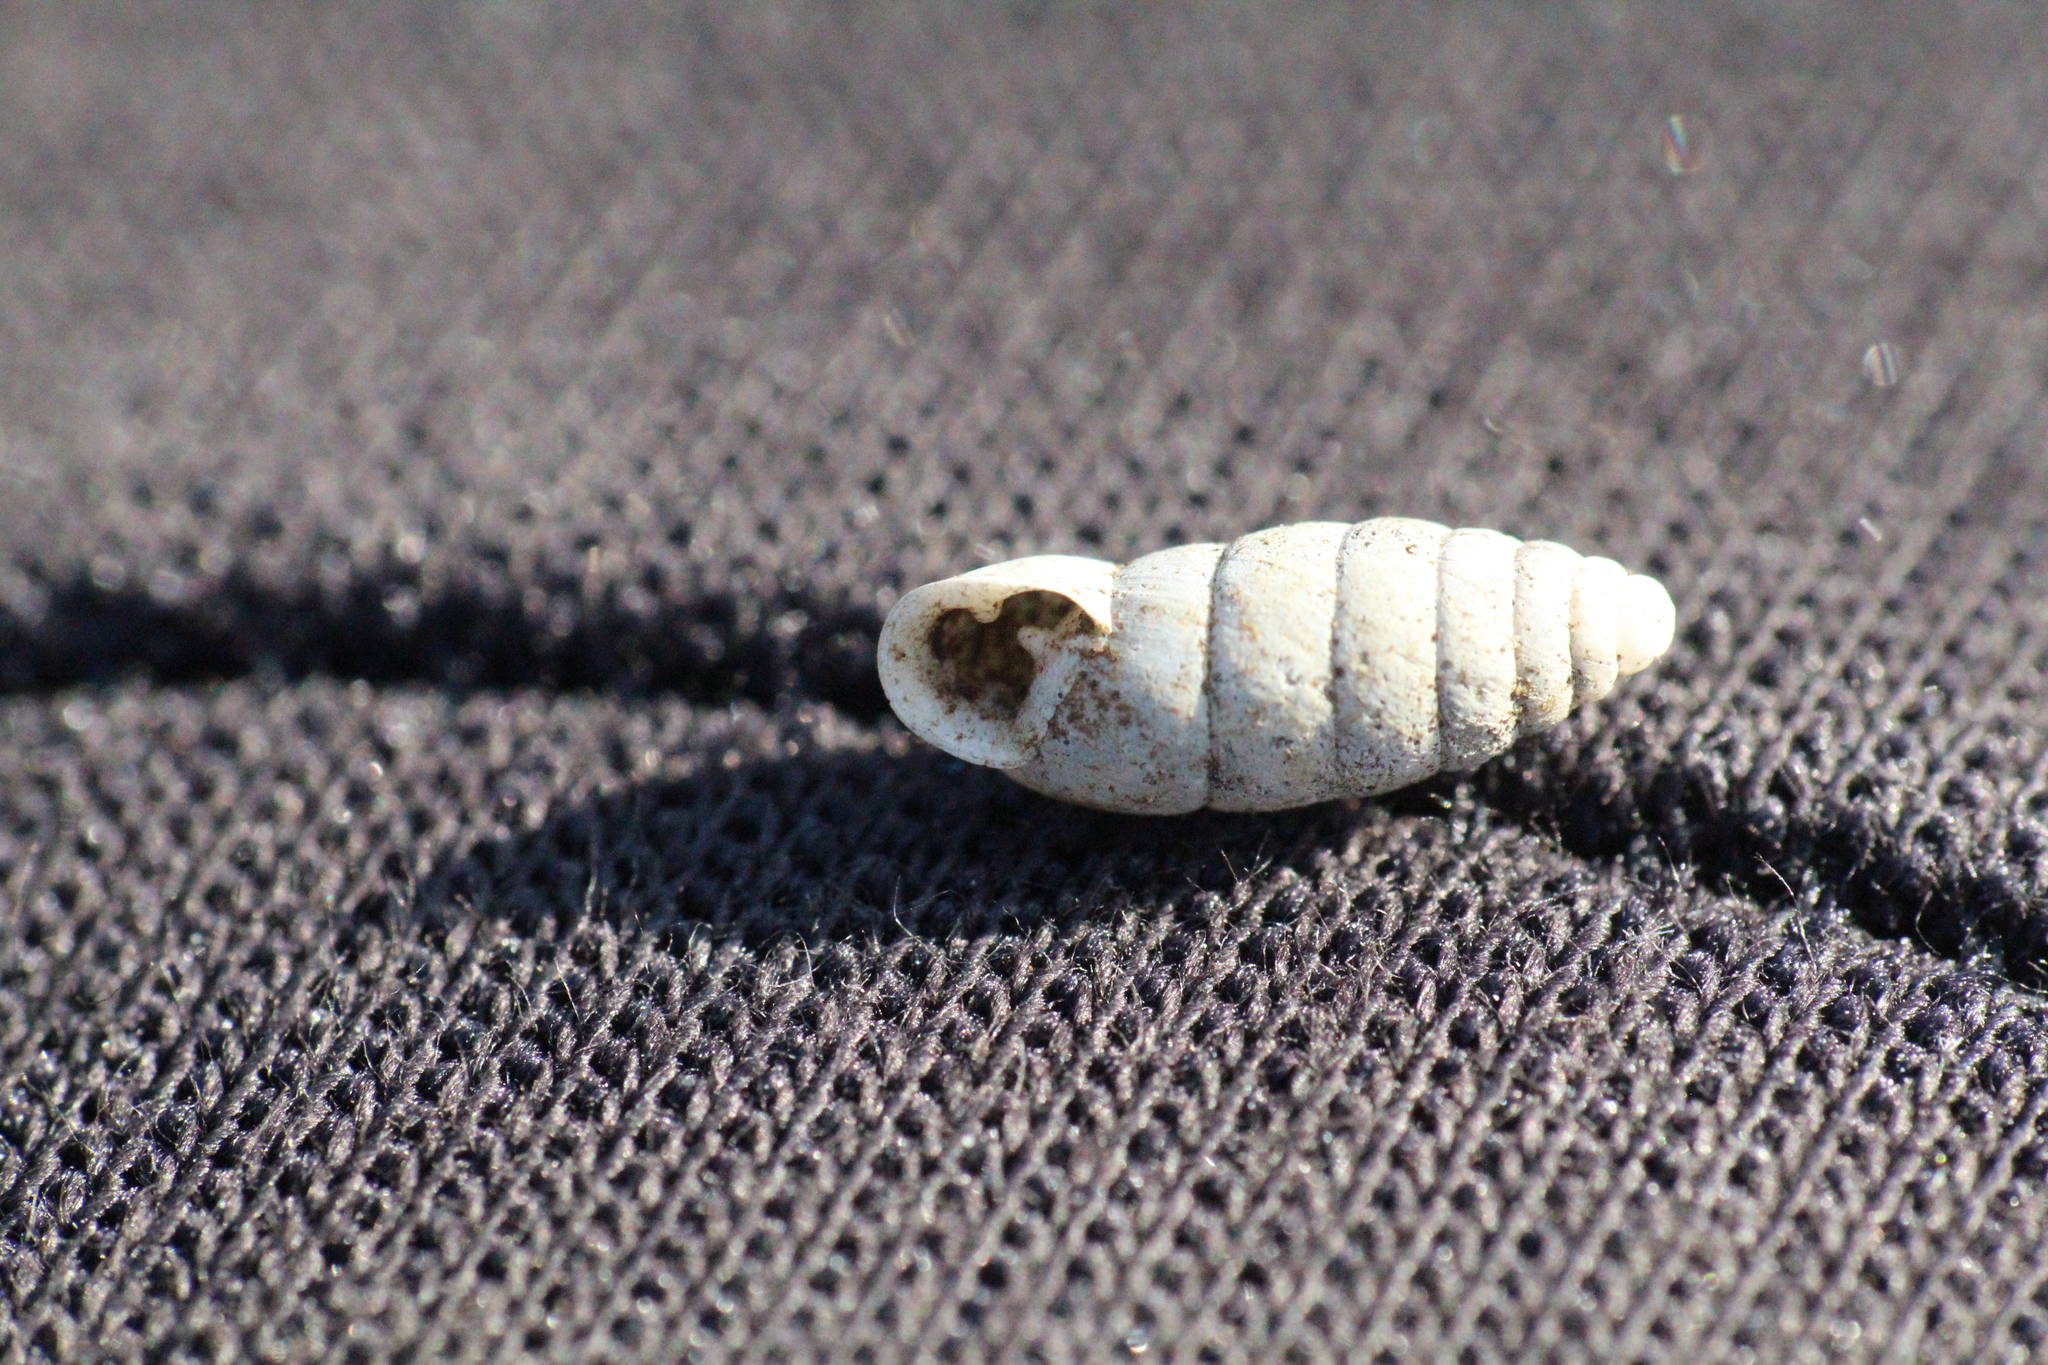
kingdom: Animalia
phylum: Mollusca
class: Gastropoda
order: Stylommatophora
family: Enidae
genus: Jaminia
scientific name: Jaminia quadridens
